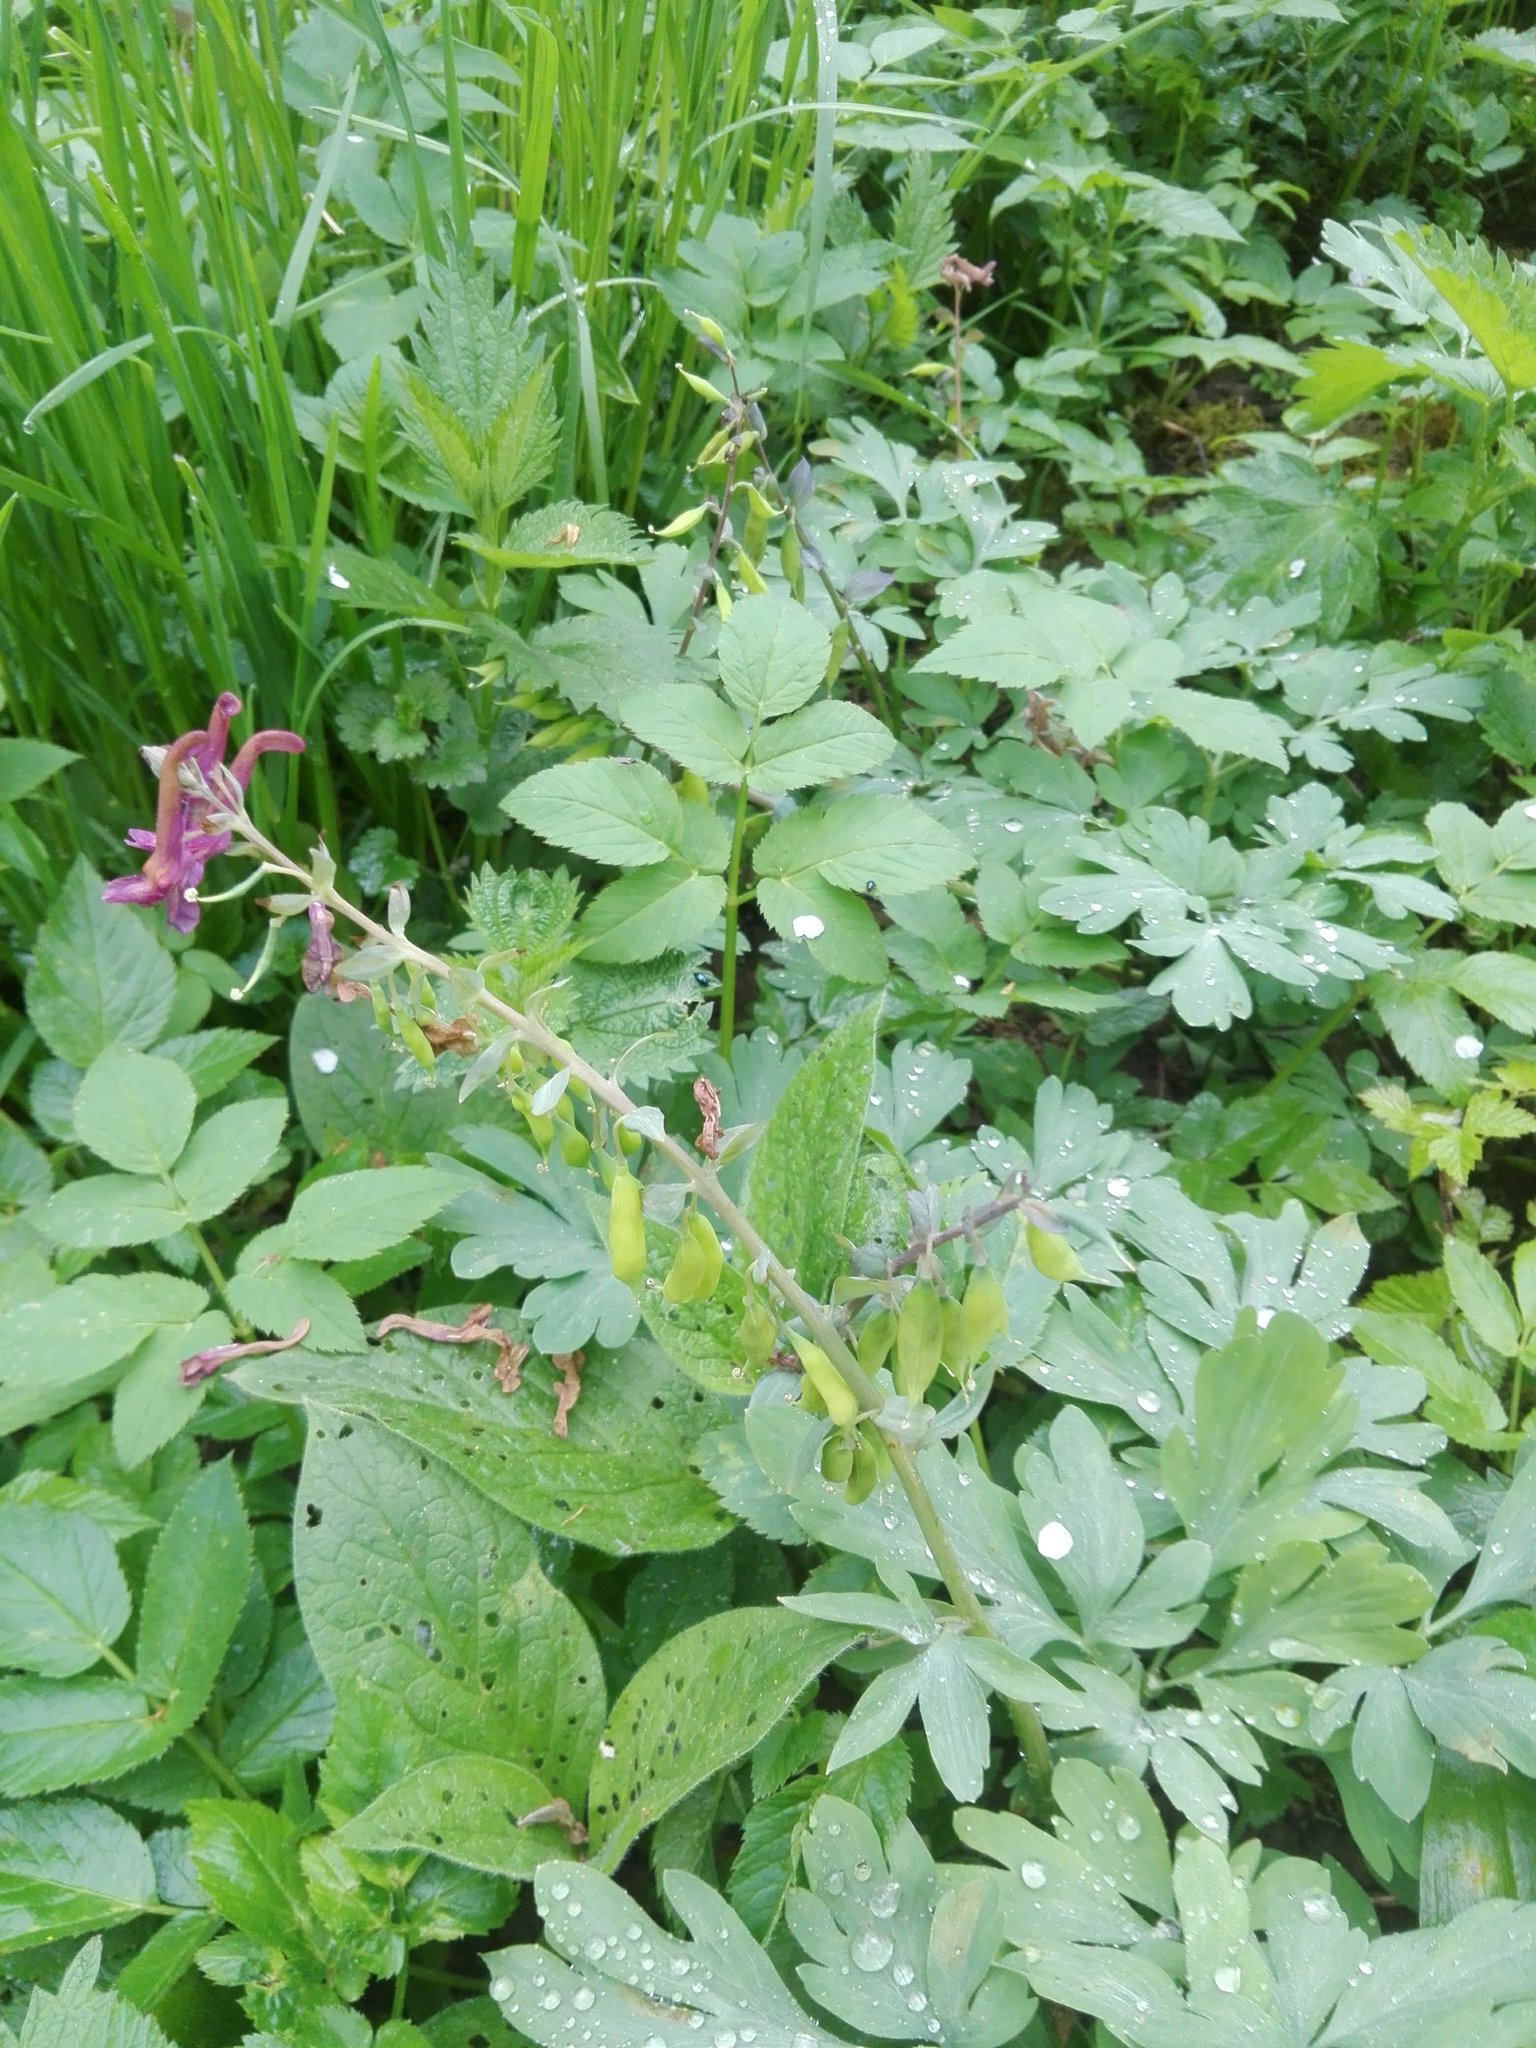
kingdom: Plantae
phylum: Tracheophyta
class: Magnoliopsida
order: Ranunculales
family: Papaveraceae
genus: Corydalis
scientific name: Corydalis cava
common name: Hollowroot
